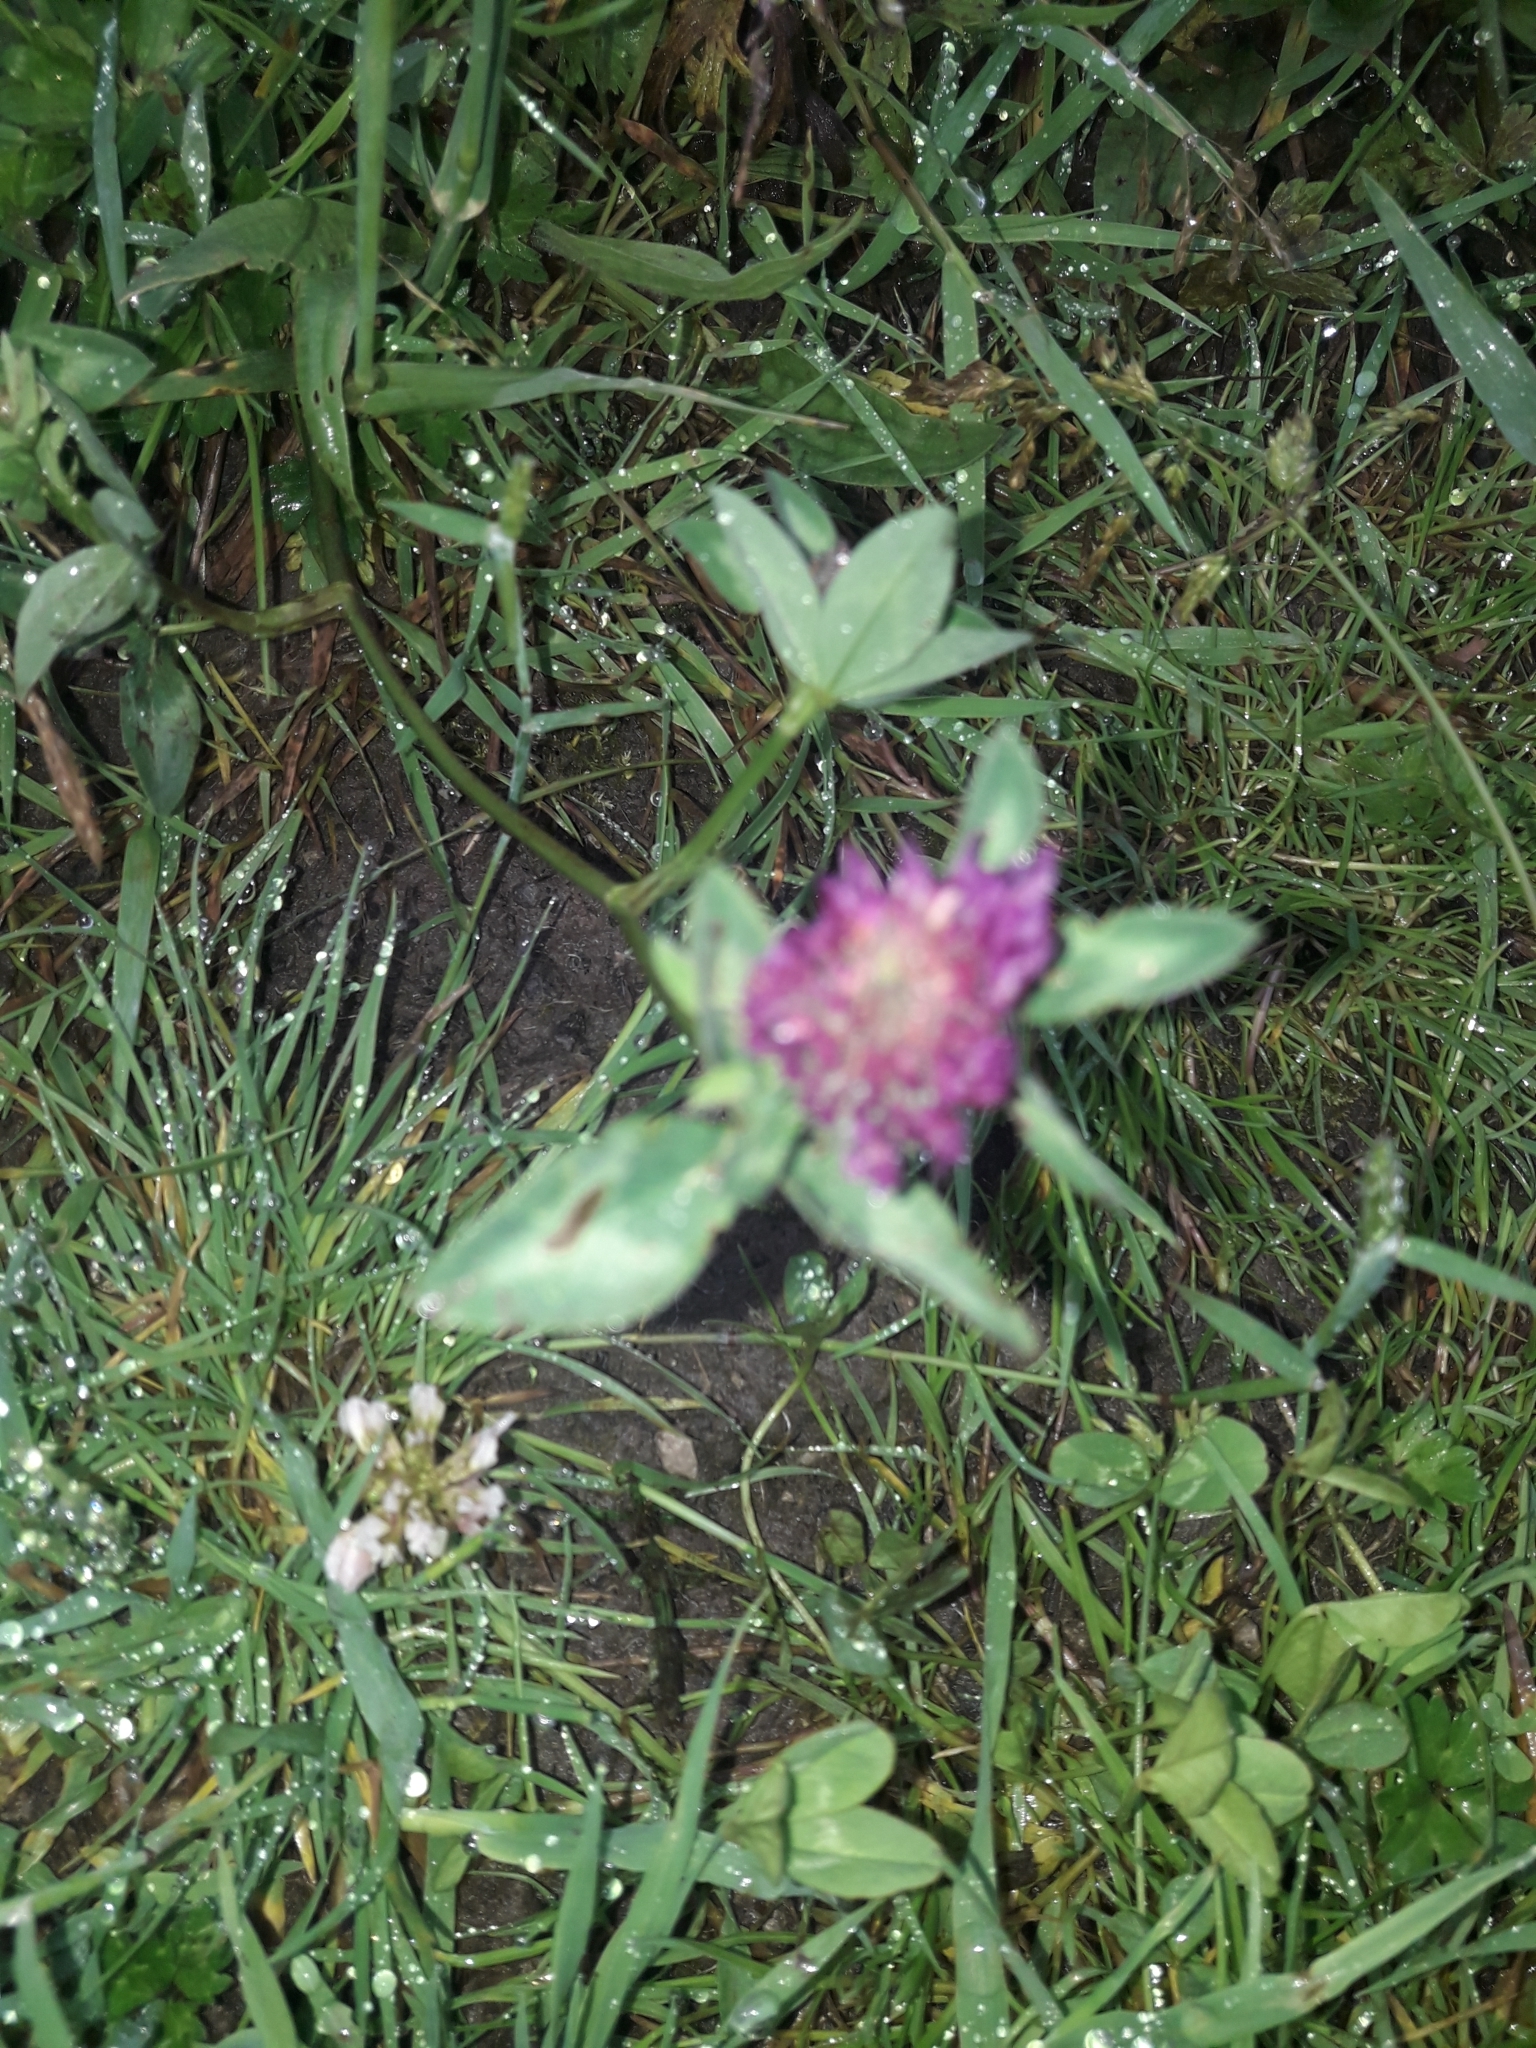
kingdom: Plantae
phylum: Tracheophyta
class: Magnoliopsida
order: Fabales
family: Fabaceae
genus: Trifolium
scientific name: Trifolium pratense
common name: Red clover
